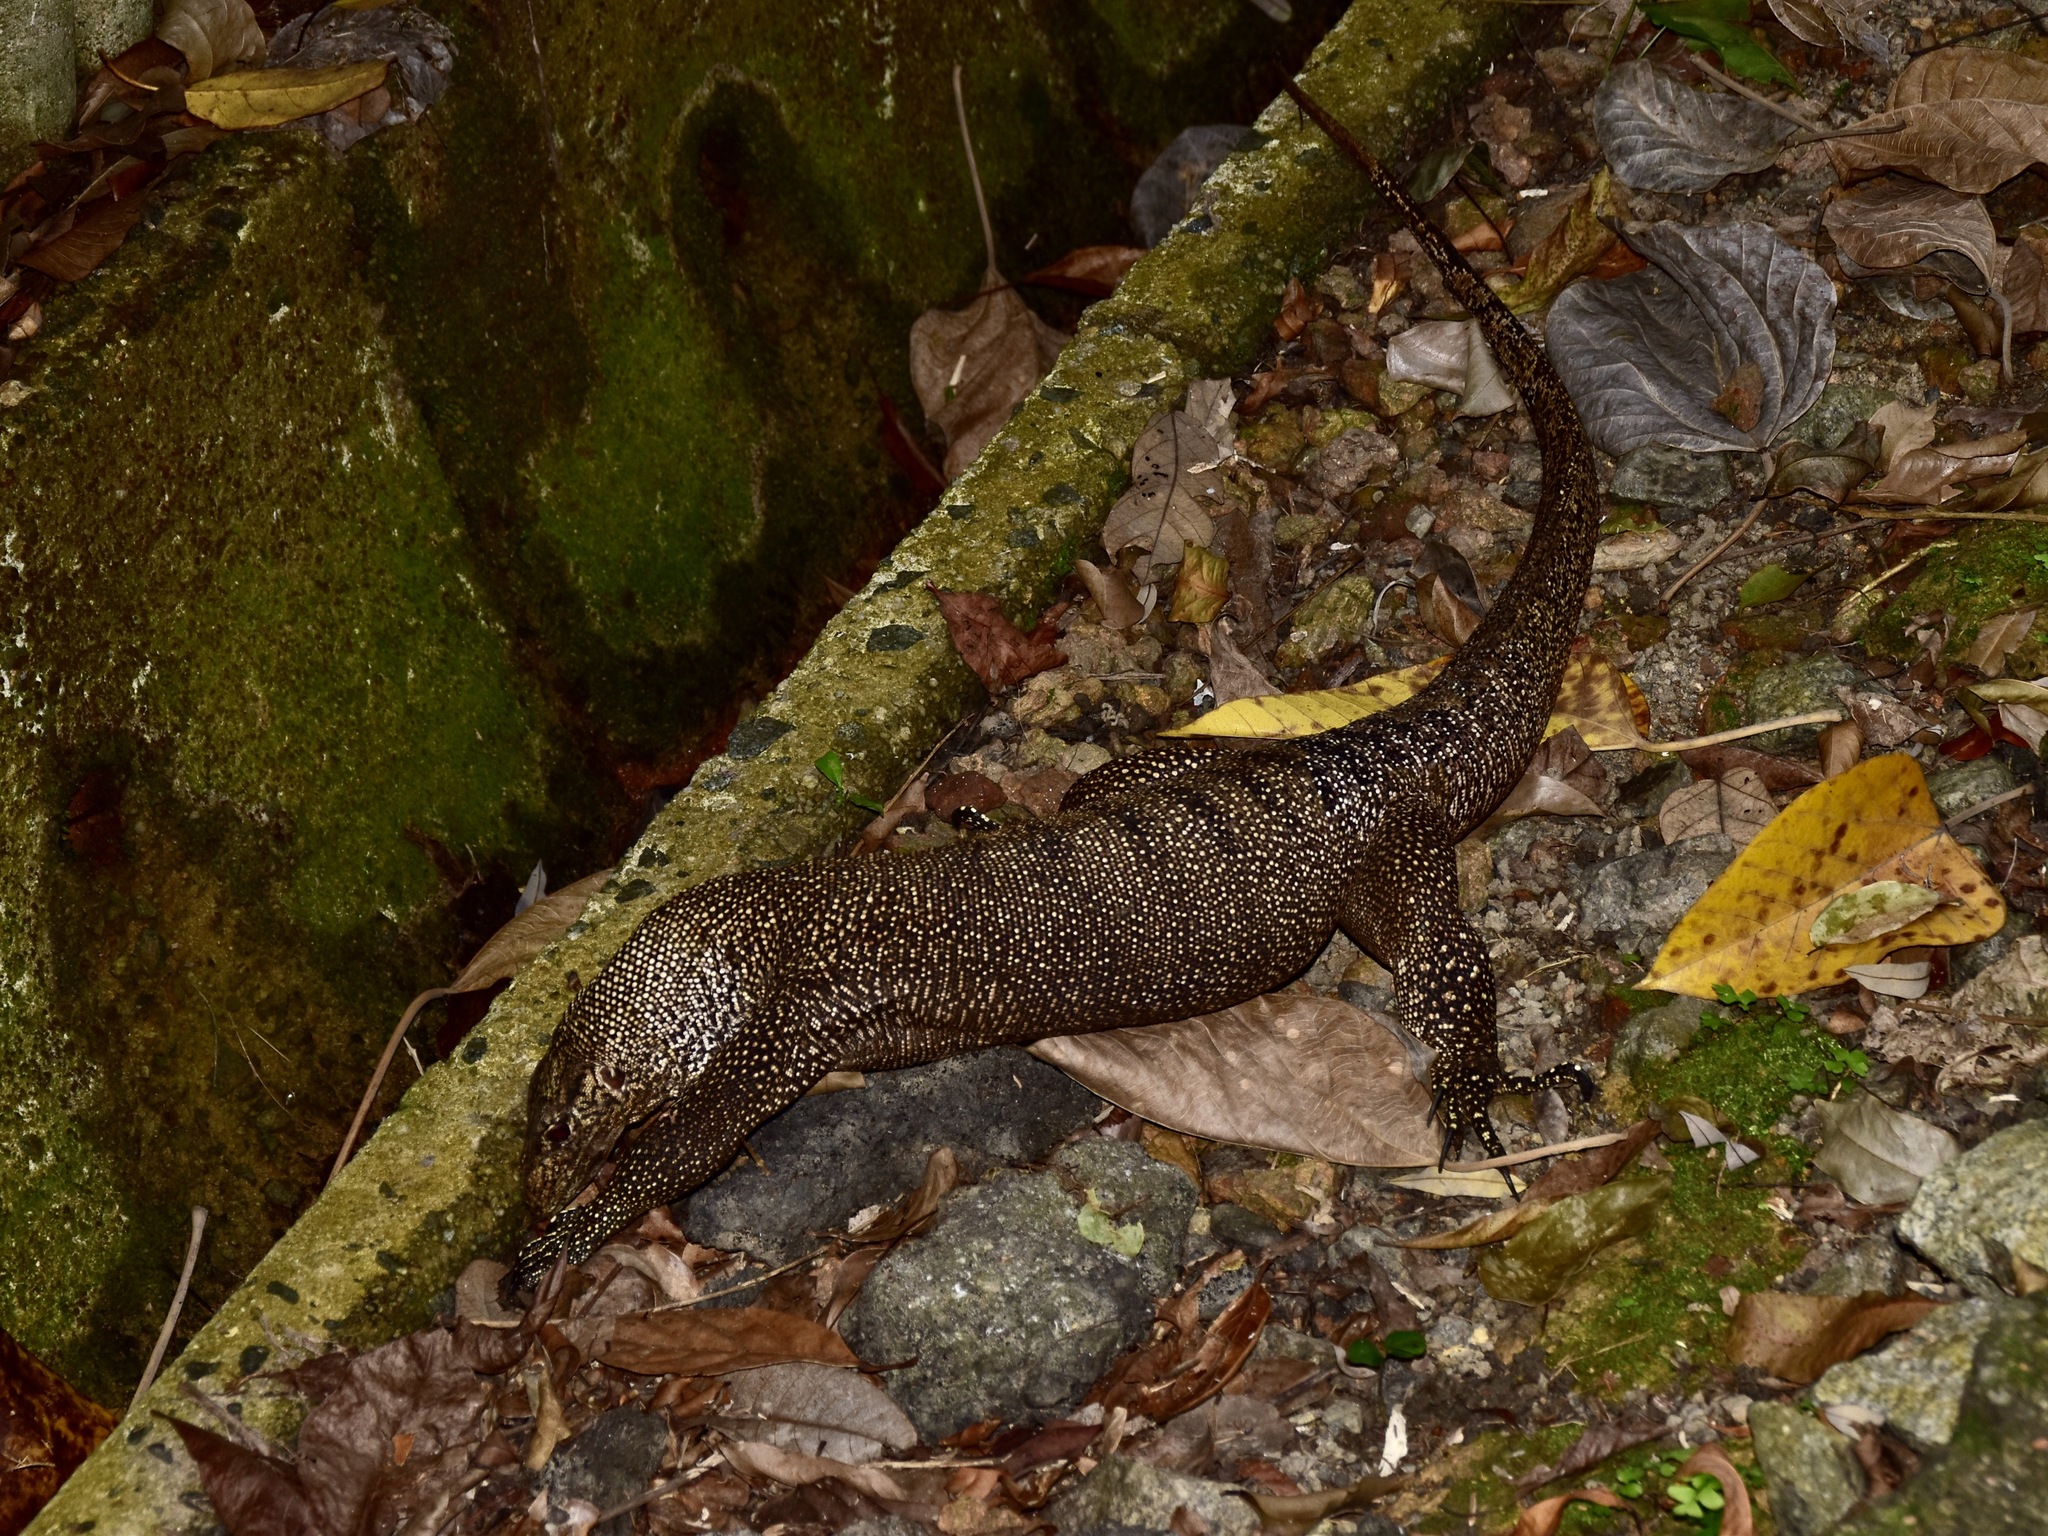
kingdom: Animalia
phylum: Chordata
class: Squamata
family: Varanidae
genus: Varanus
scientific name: Varanus nebulosus
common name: Clouded monitor
